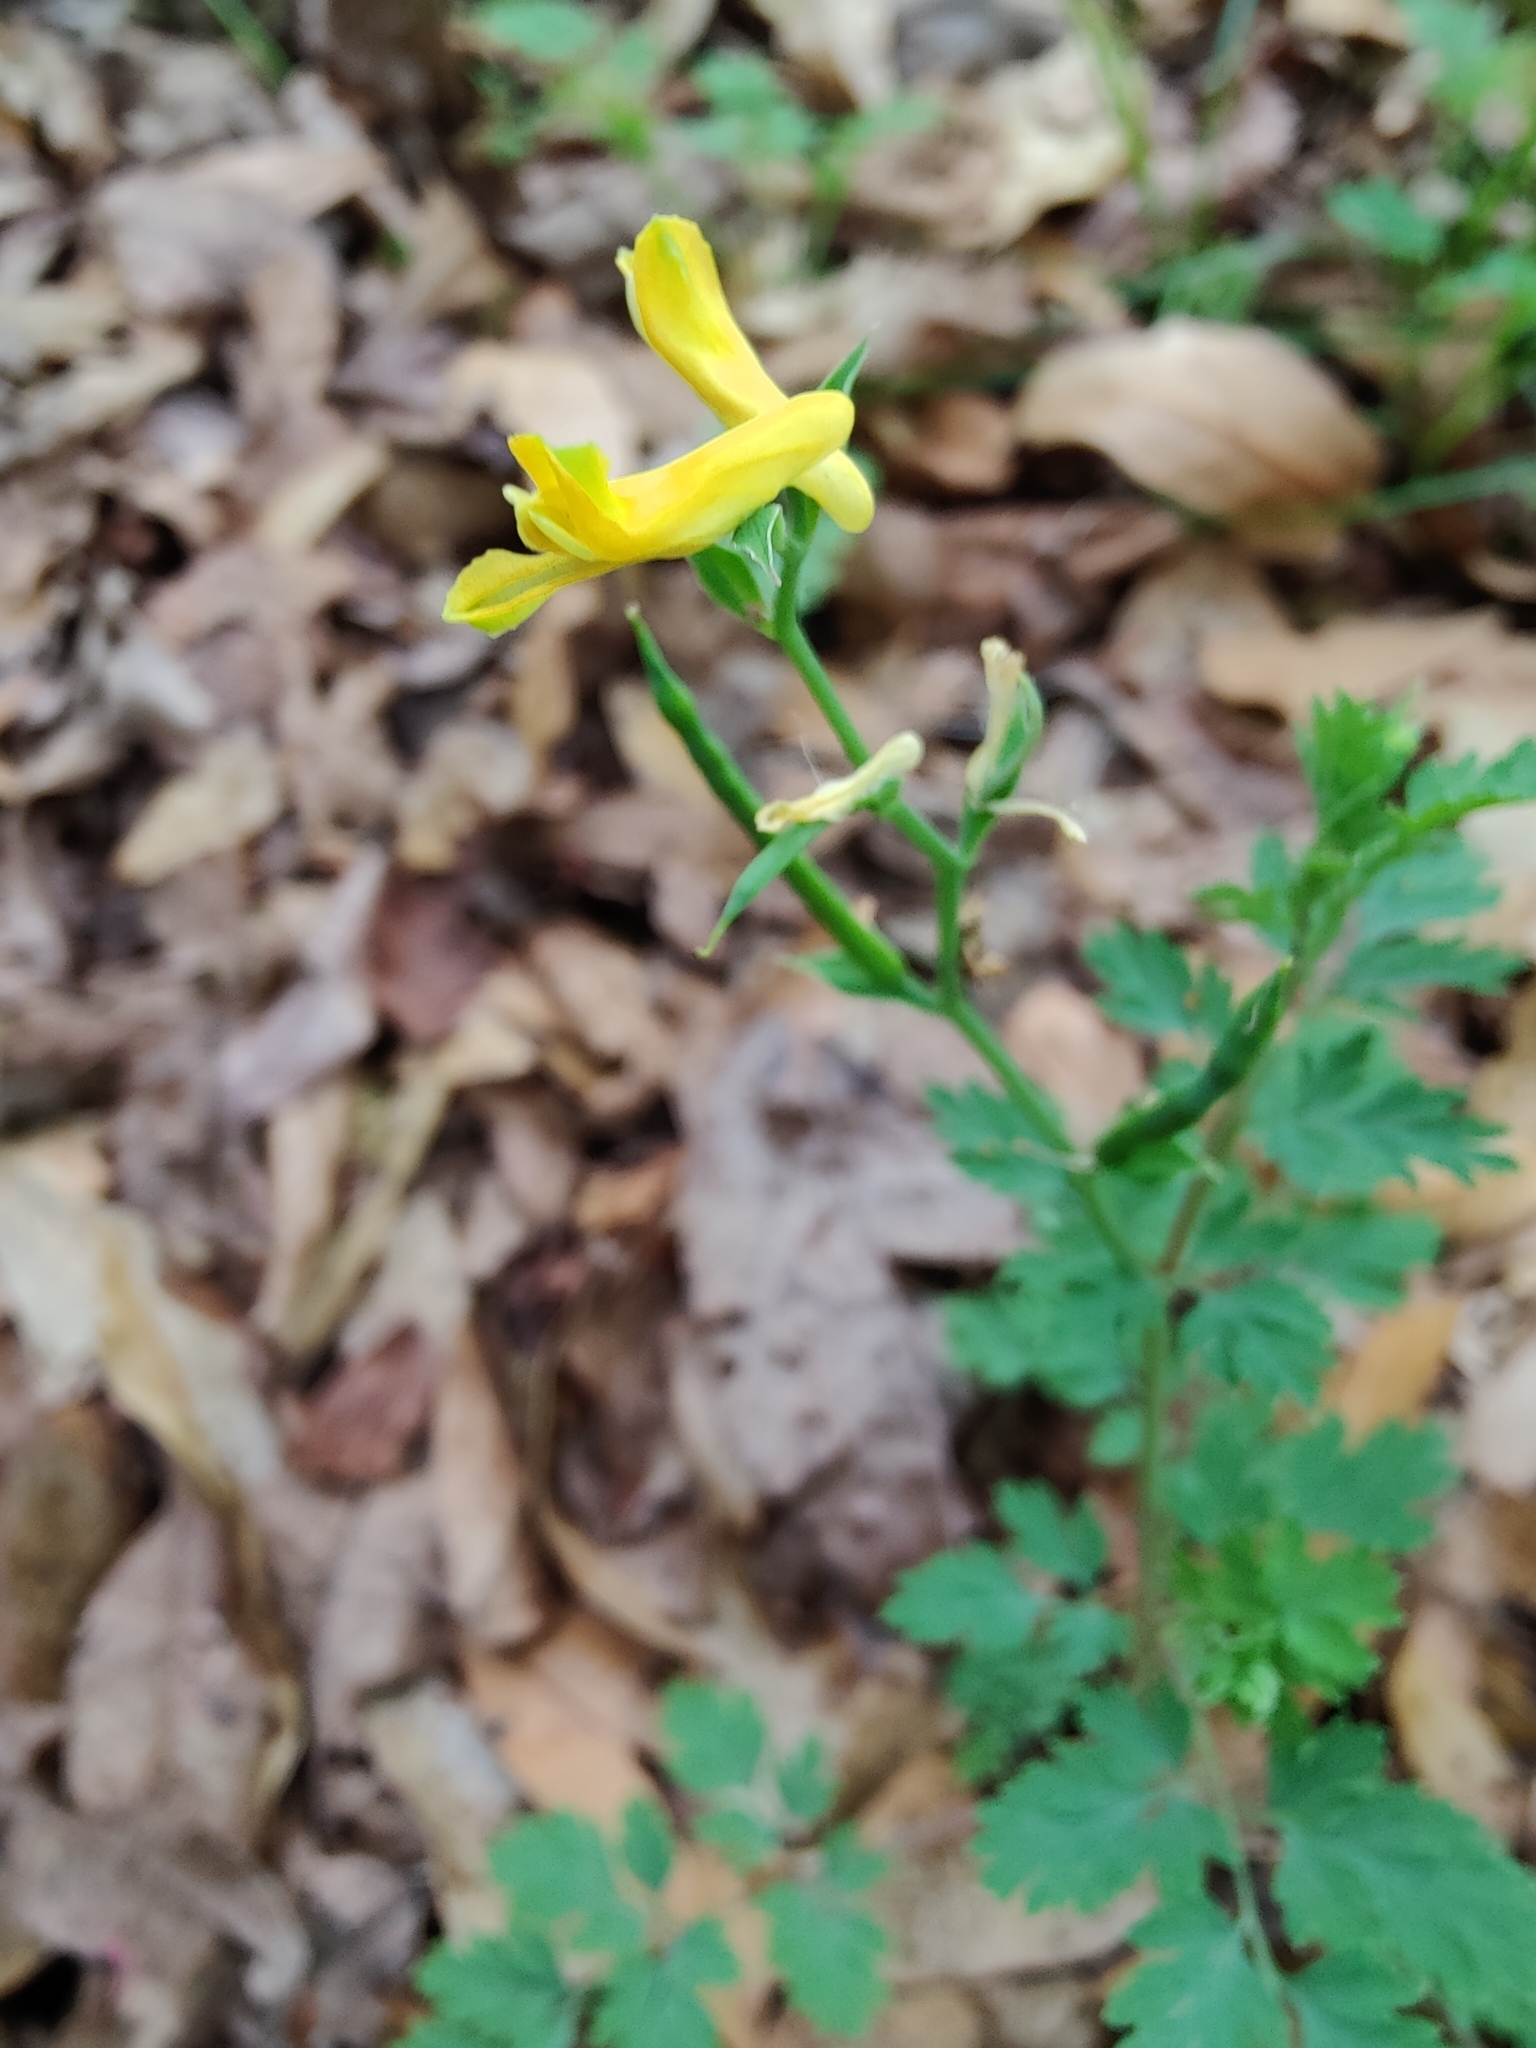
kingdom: Plantae
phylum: Tracheophyta
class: Magnoliopsida
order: Ranunculales
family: Papaveraceae
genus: Corydalis
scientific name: Corydalis micrantha
